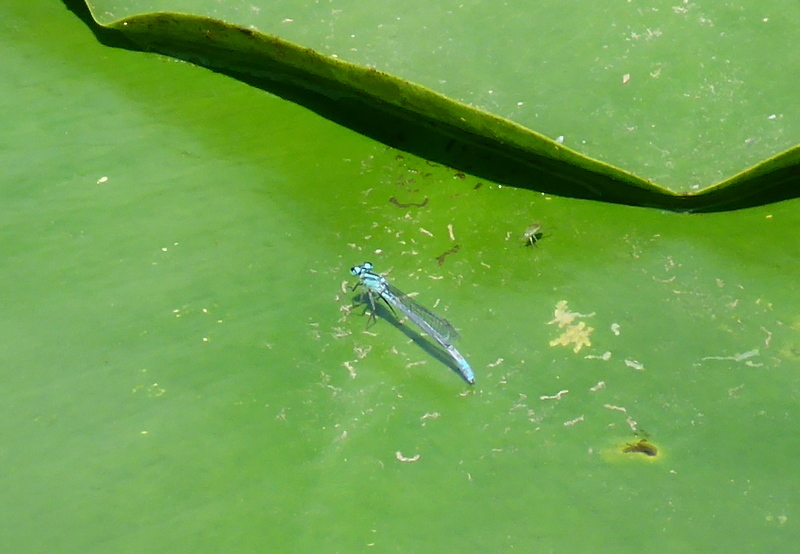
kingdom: Animalia
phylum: Arthropoda
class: Insecta
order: Odonata
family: Coenagrionidae
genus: Ischnura
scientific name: Ischnura kellicotti
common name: Lilypad forktail
